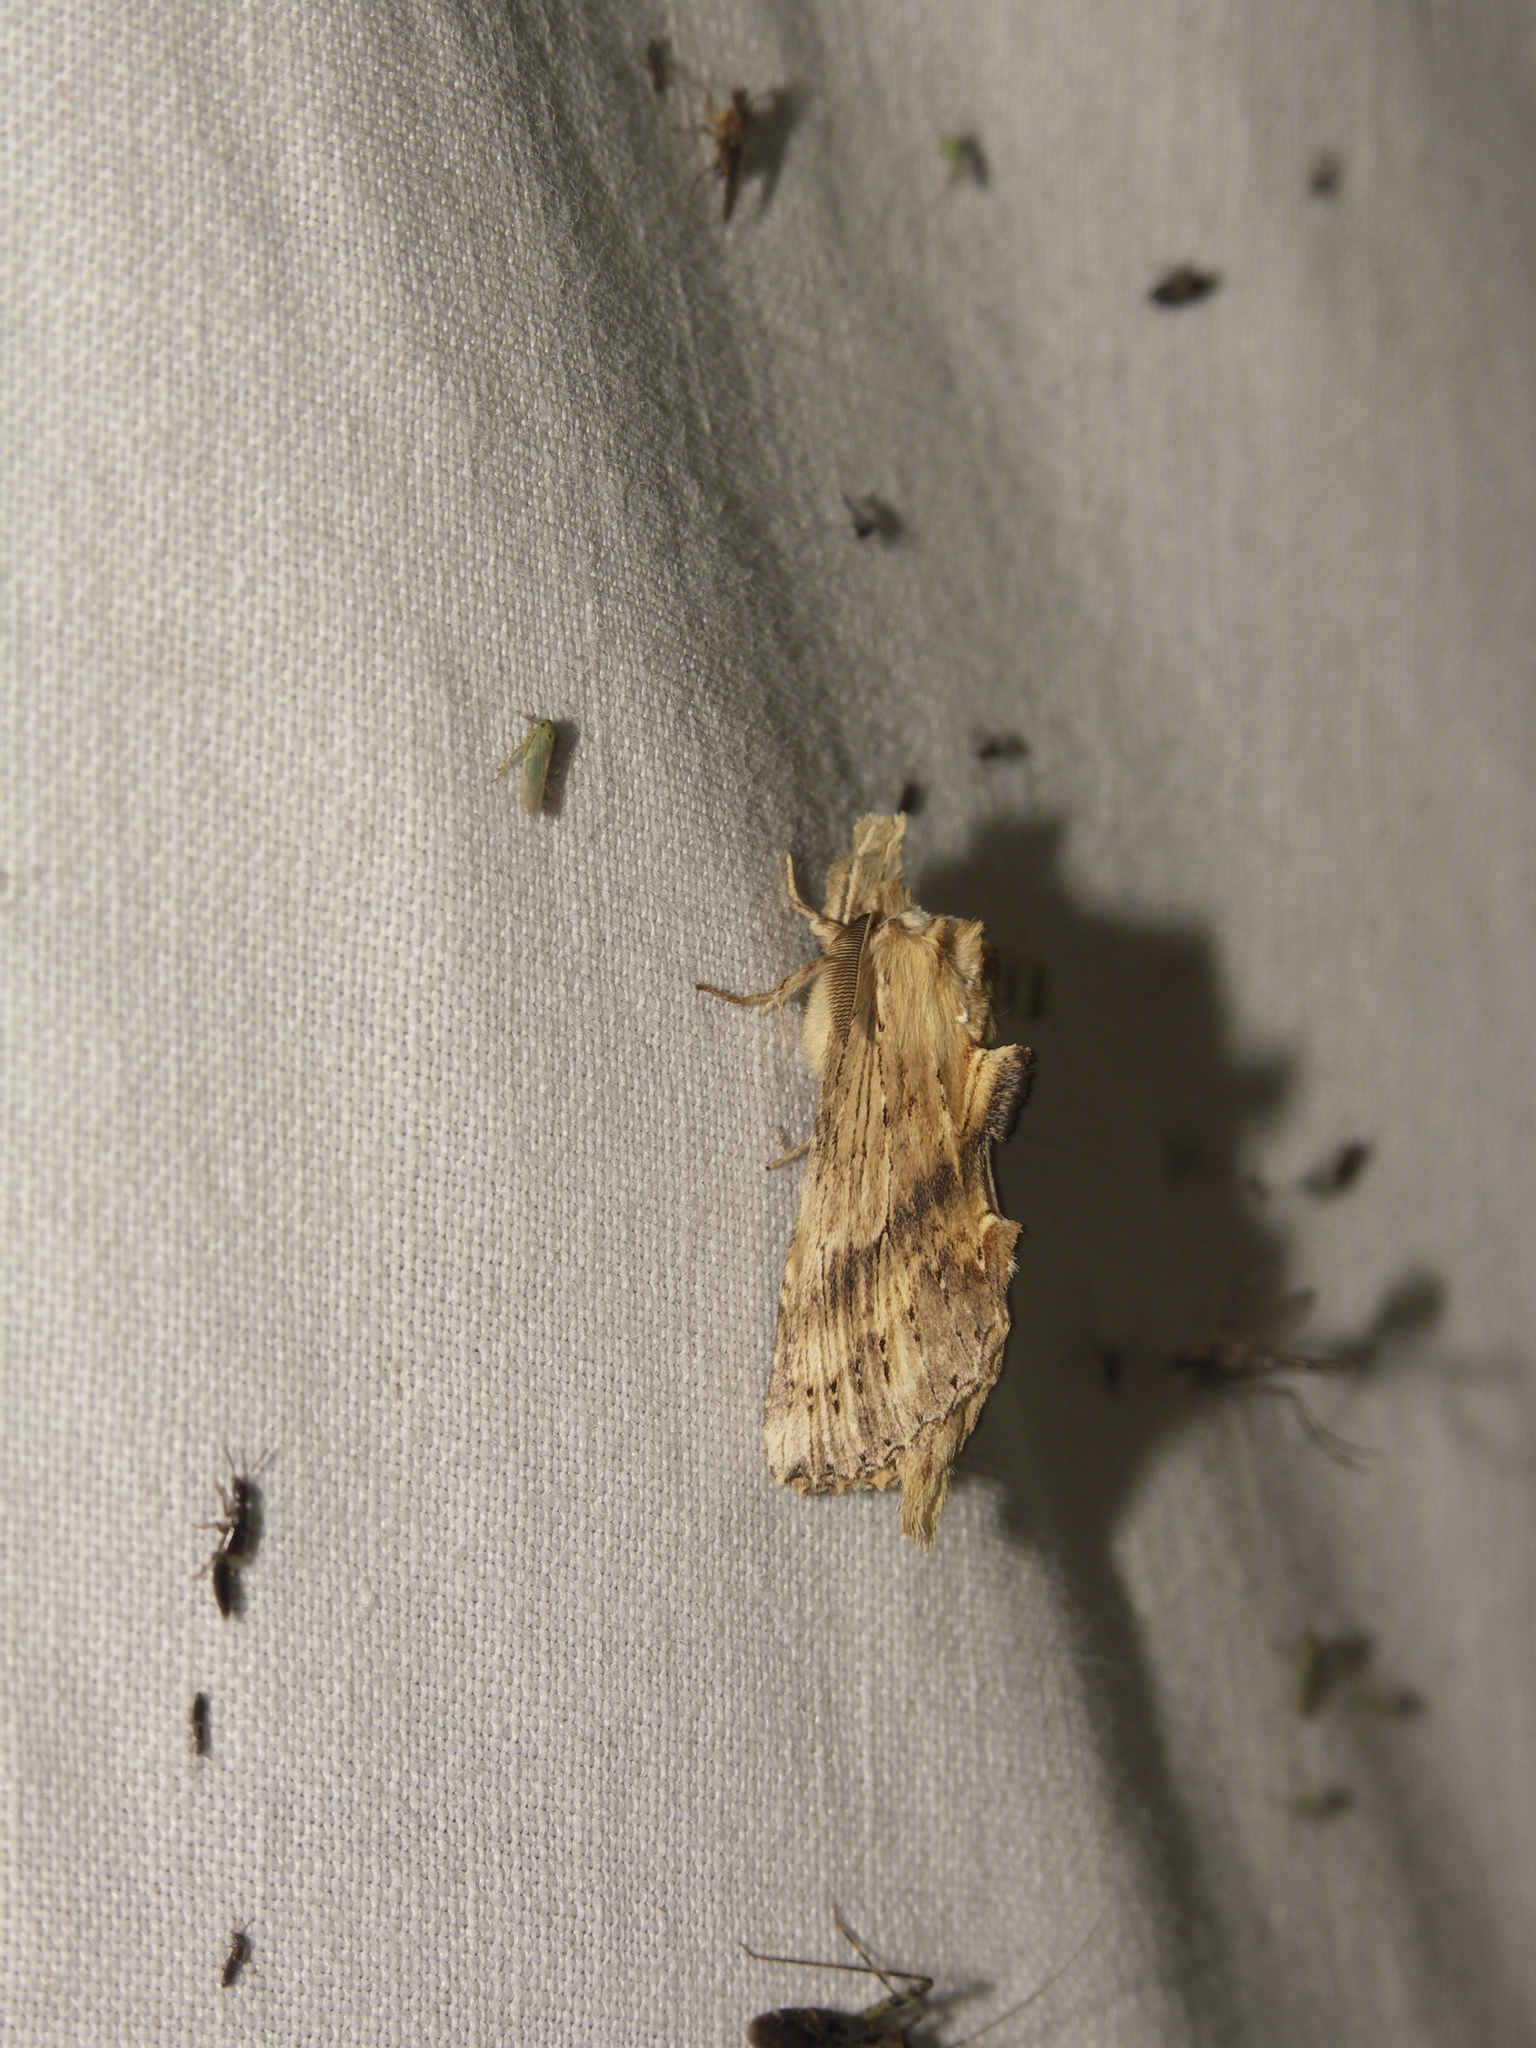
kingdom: Animalia
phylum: Arthropoda
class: Insecta
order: Lepidoptera
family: Notodontidae
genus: Pterostoma
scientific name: Pterostoma palpina
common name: Pale prominent
